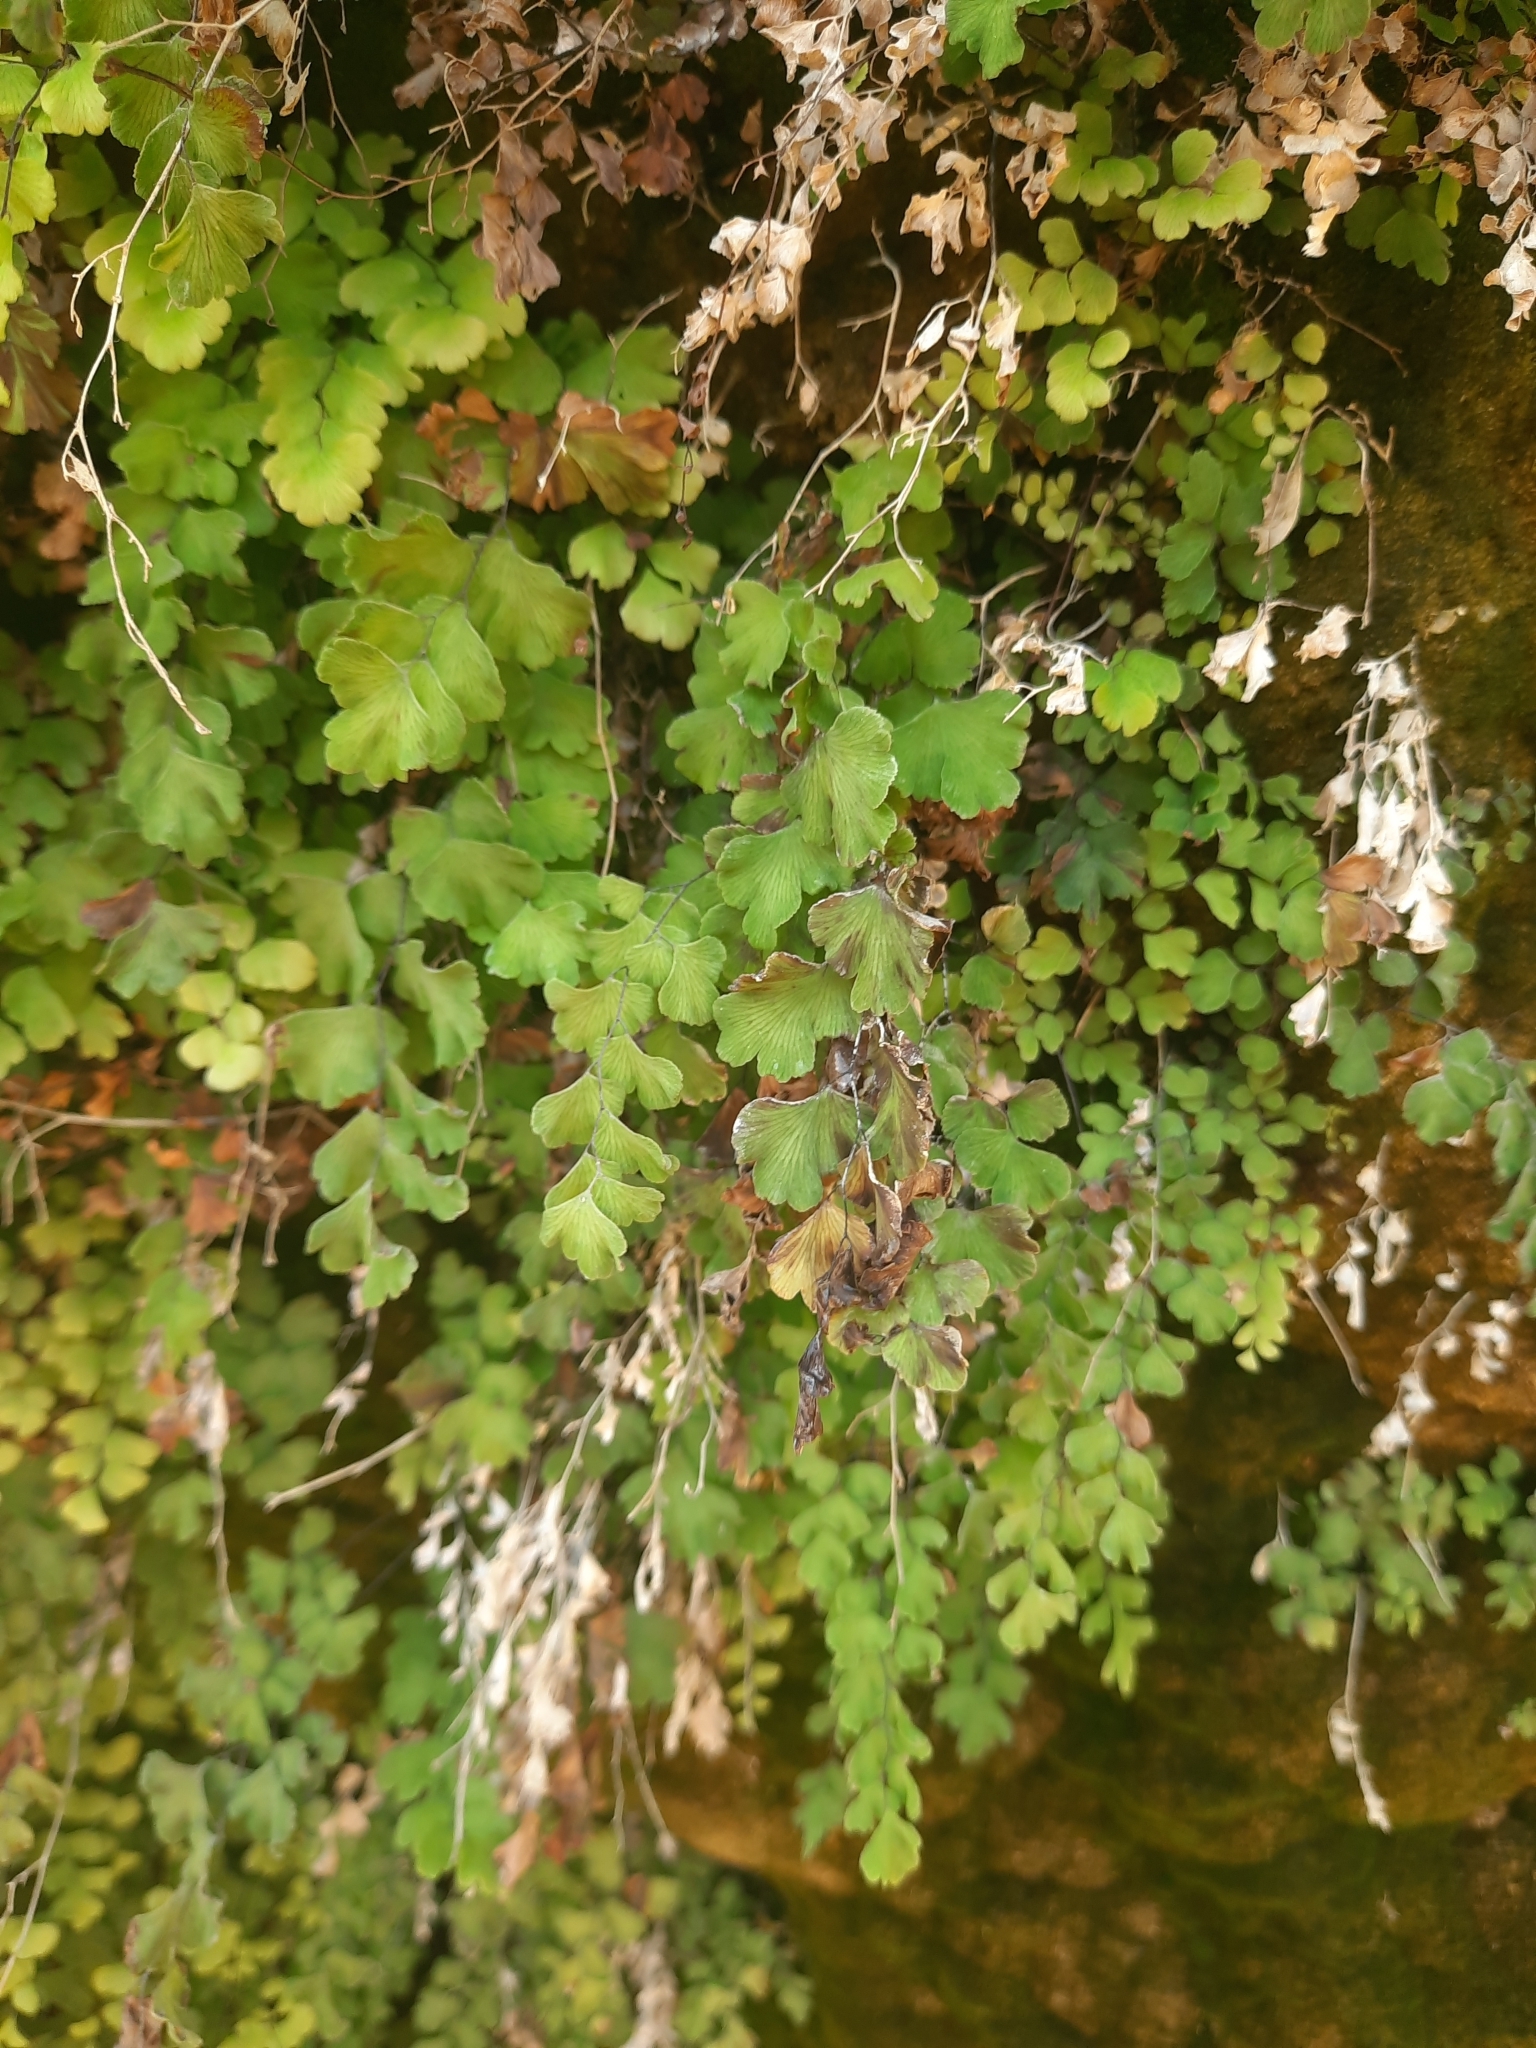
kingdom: Plantae
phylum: Tracheophyta
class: Polypodiopsida
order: Polypodiales
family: Pteridaceae
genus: Adiantum
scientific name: Adiantum capillus-veneris
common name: Maidenhair fern
